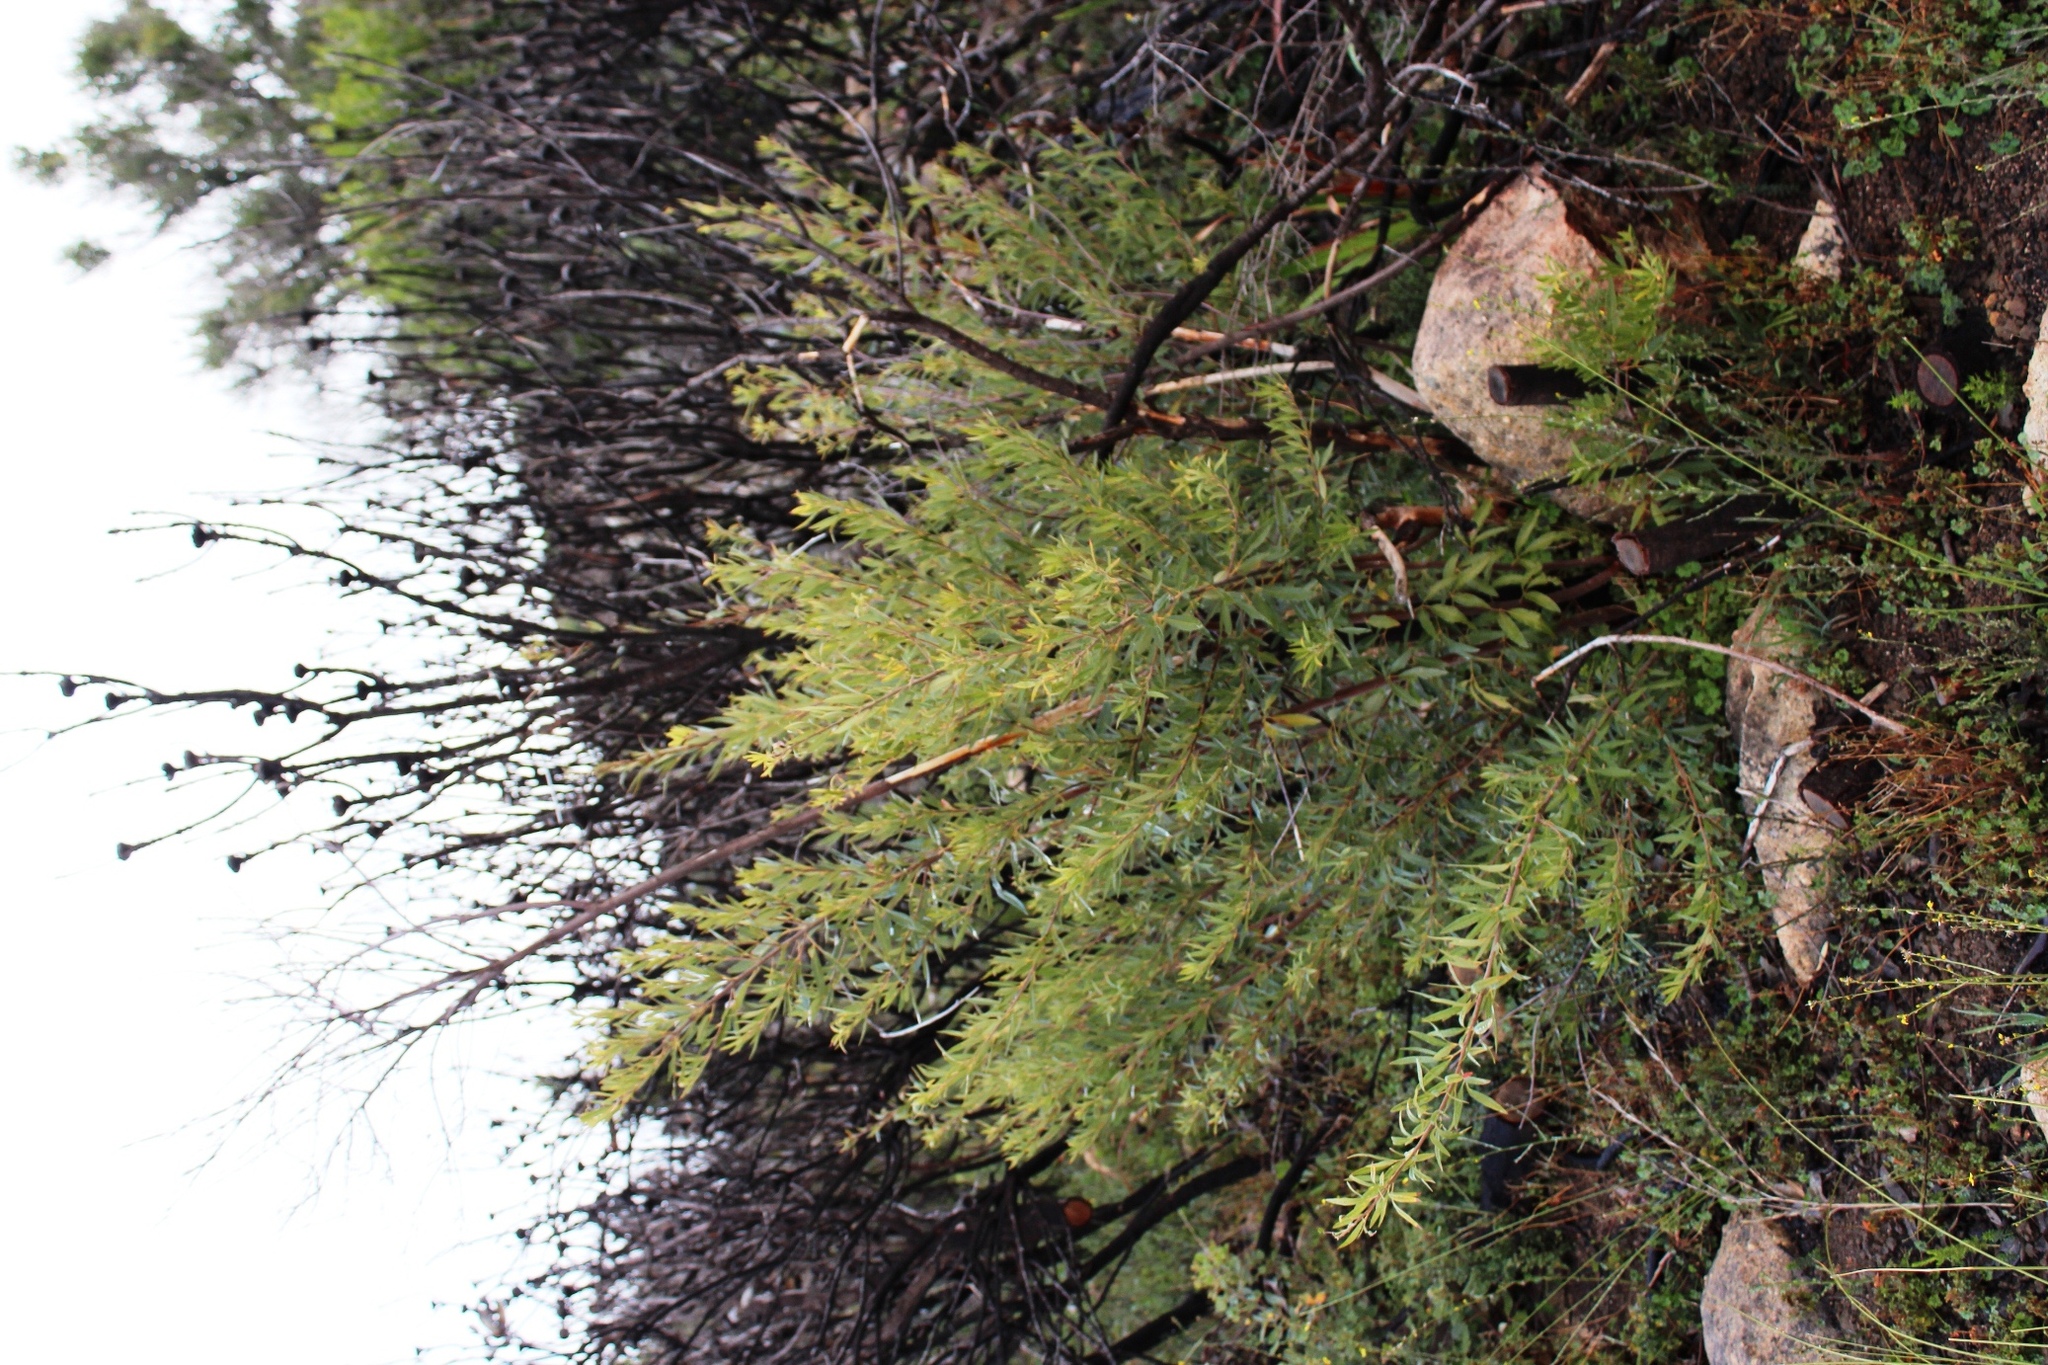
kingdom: Plantae
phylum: Tracheophyta
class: Magnoliopsida
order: Sapindales
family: Anacardiaceae
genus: Searsia
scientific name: Searsia angustifolia
